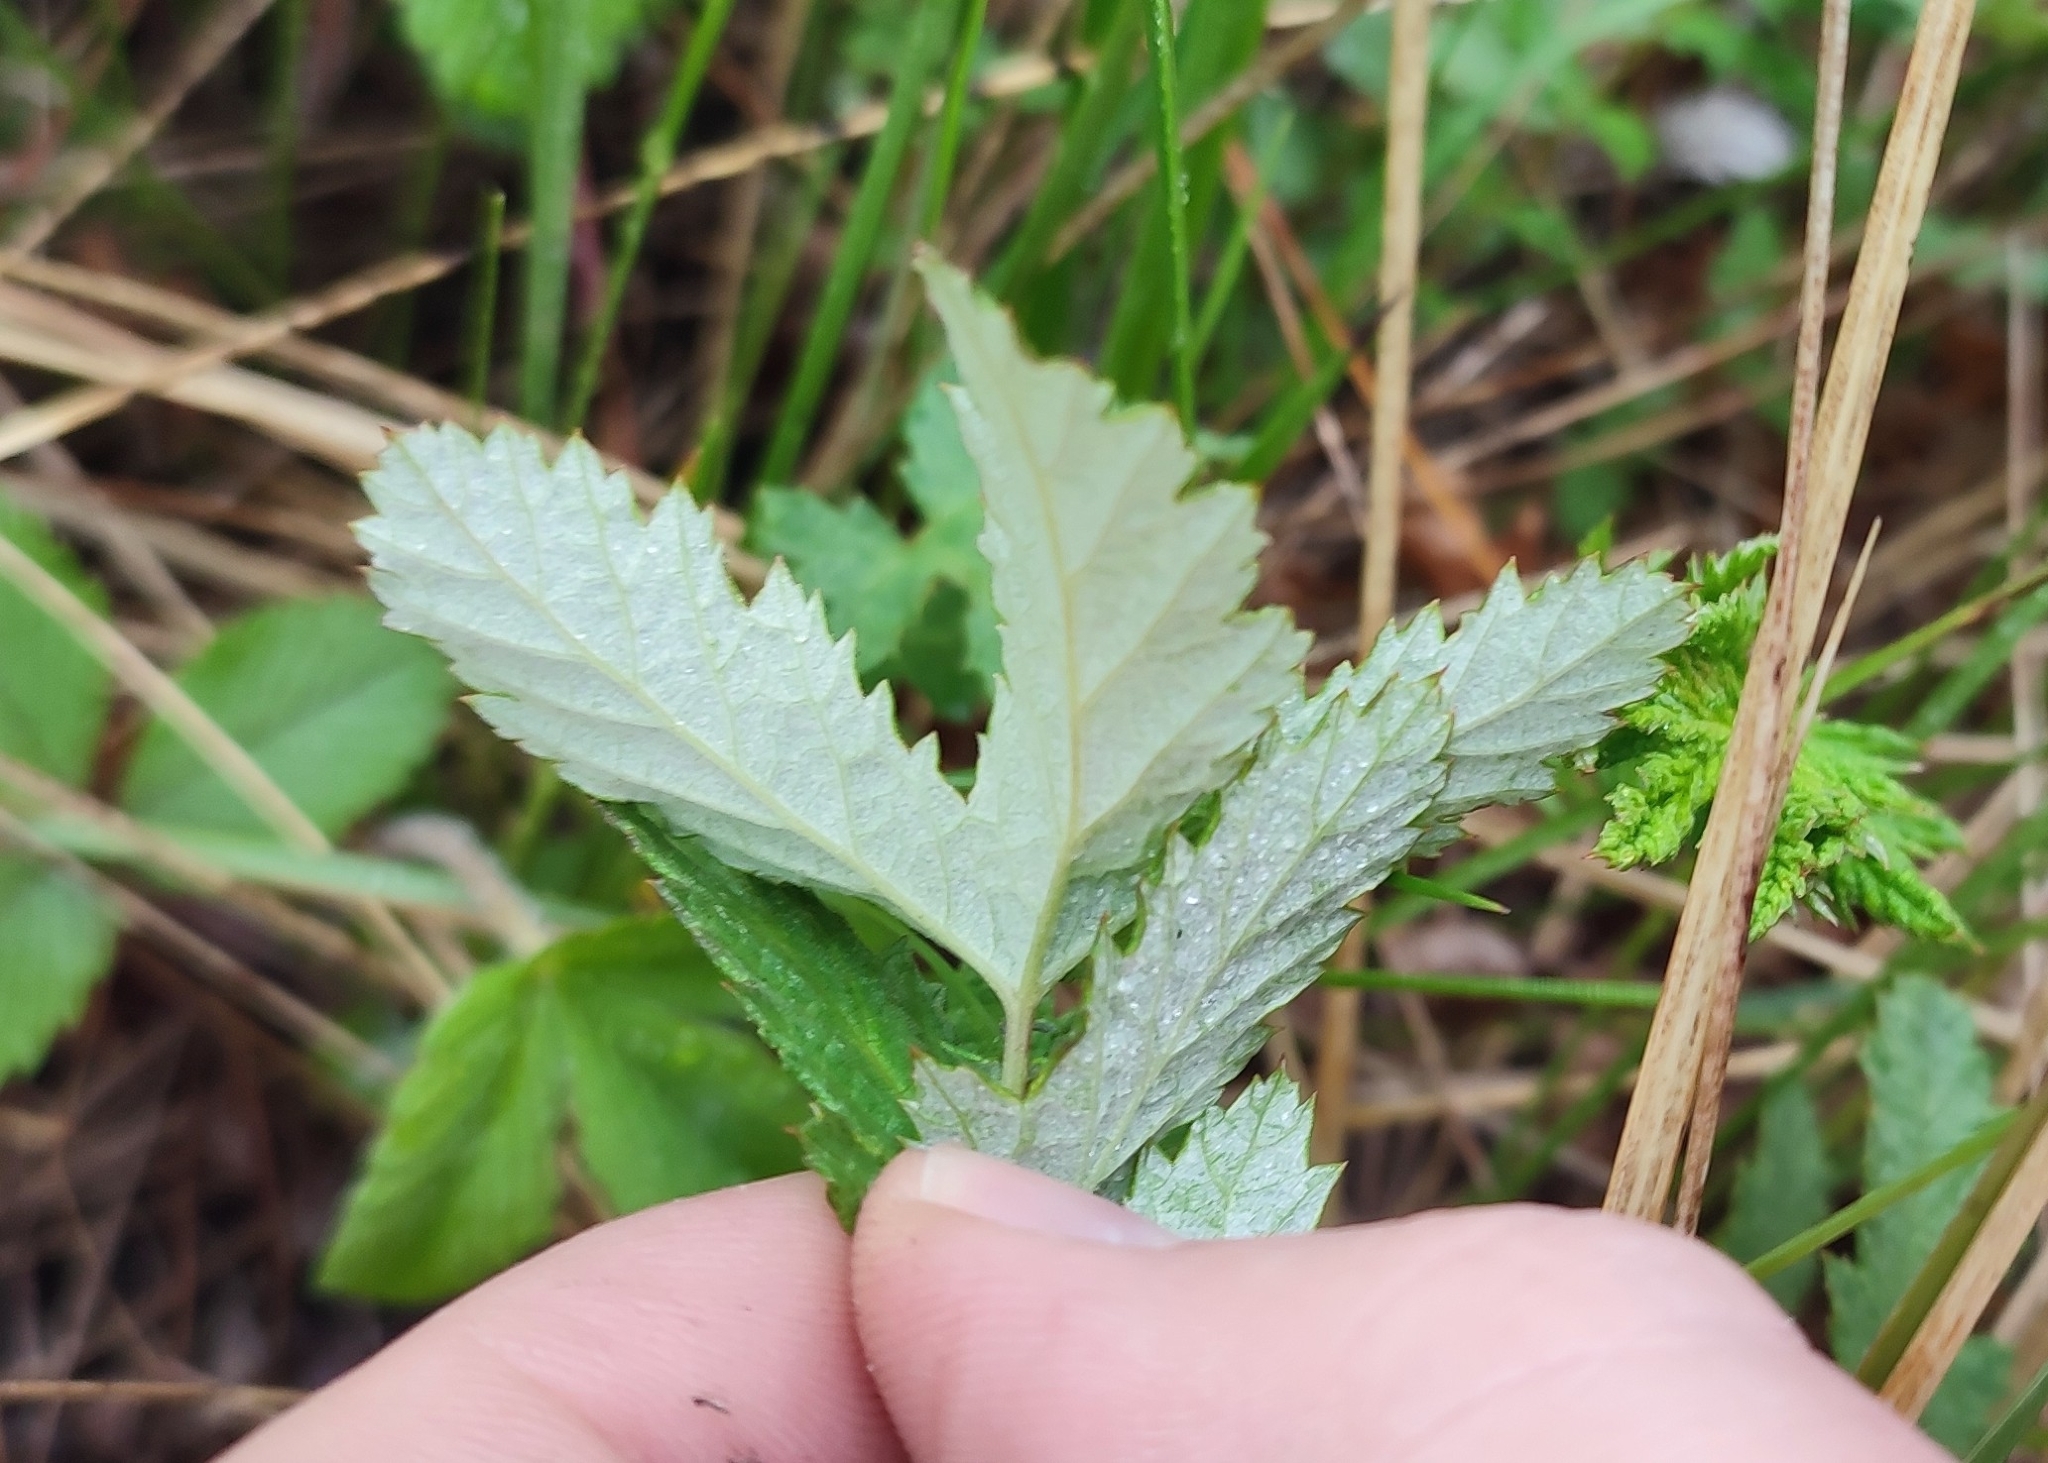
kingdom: Plantae
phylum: Tracheophyta
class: Magnoliopsida
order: Rosales
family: Rosaceae
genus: Filipendula
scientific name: Filipendula ulmaria
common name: Meadowsweet
